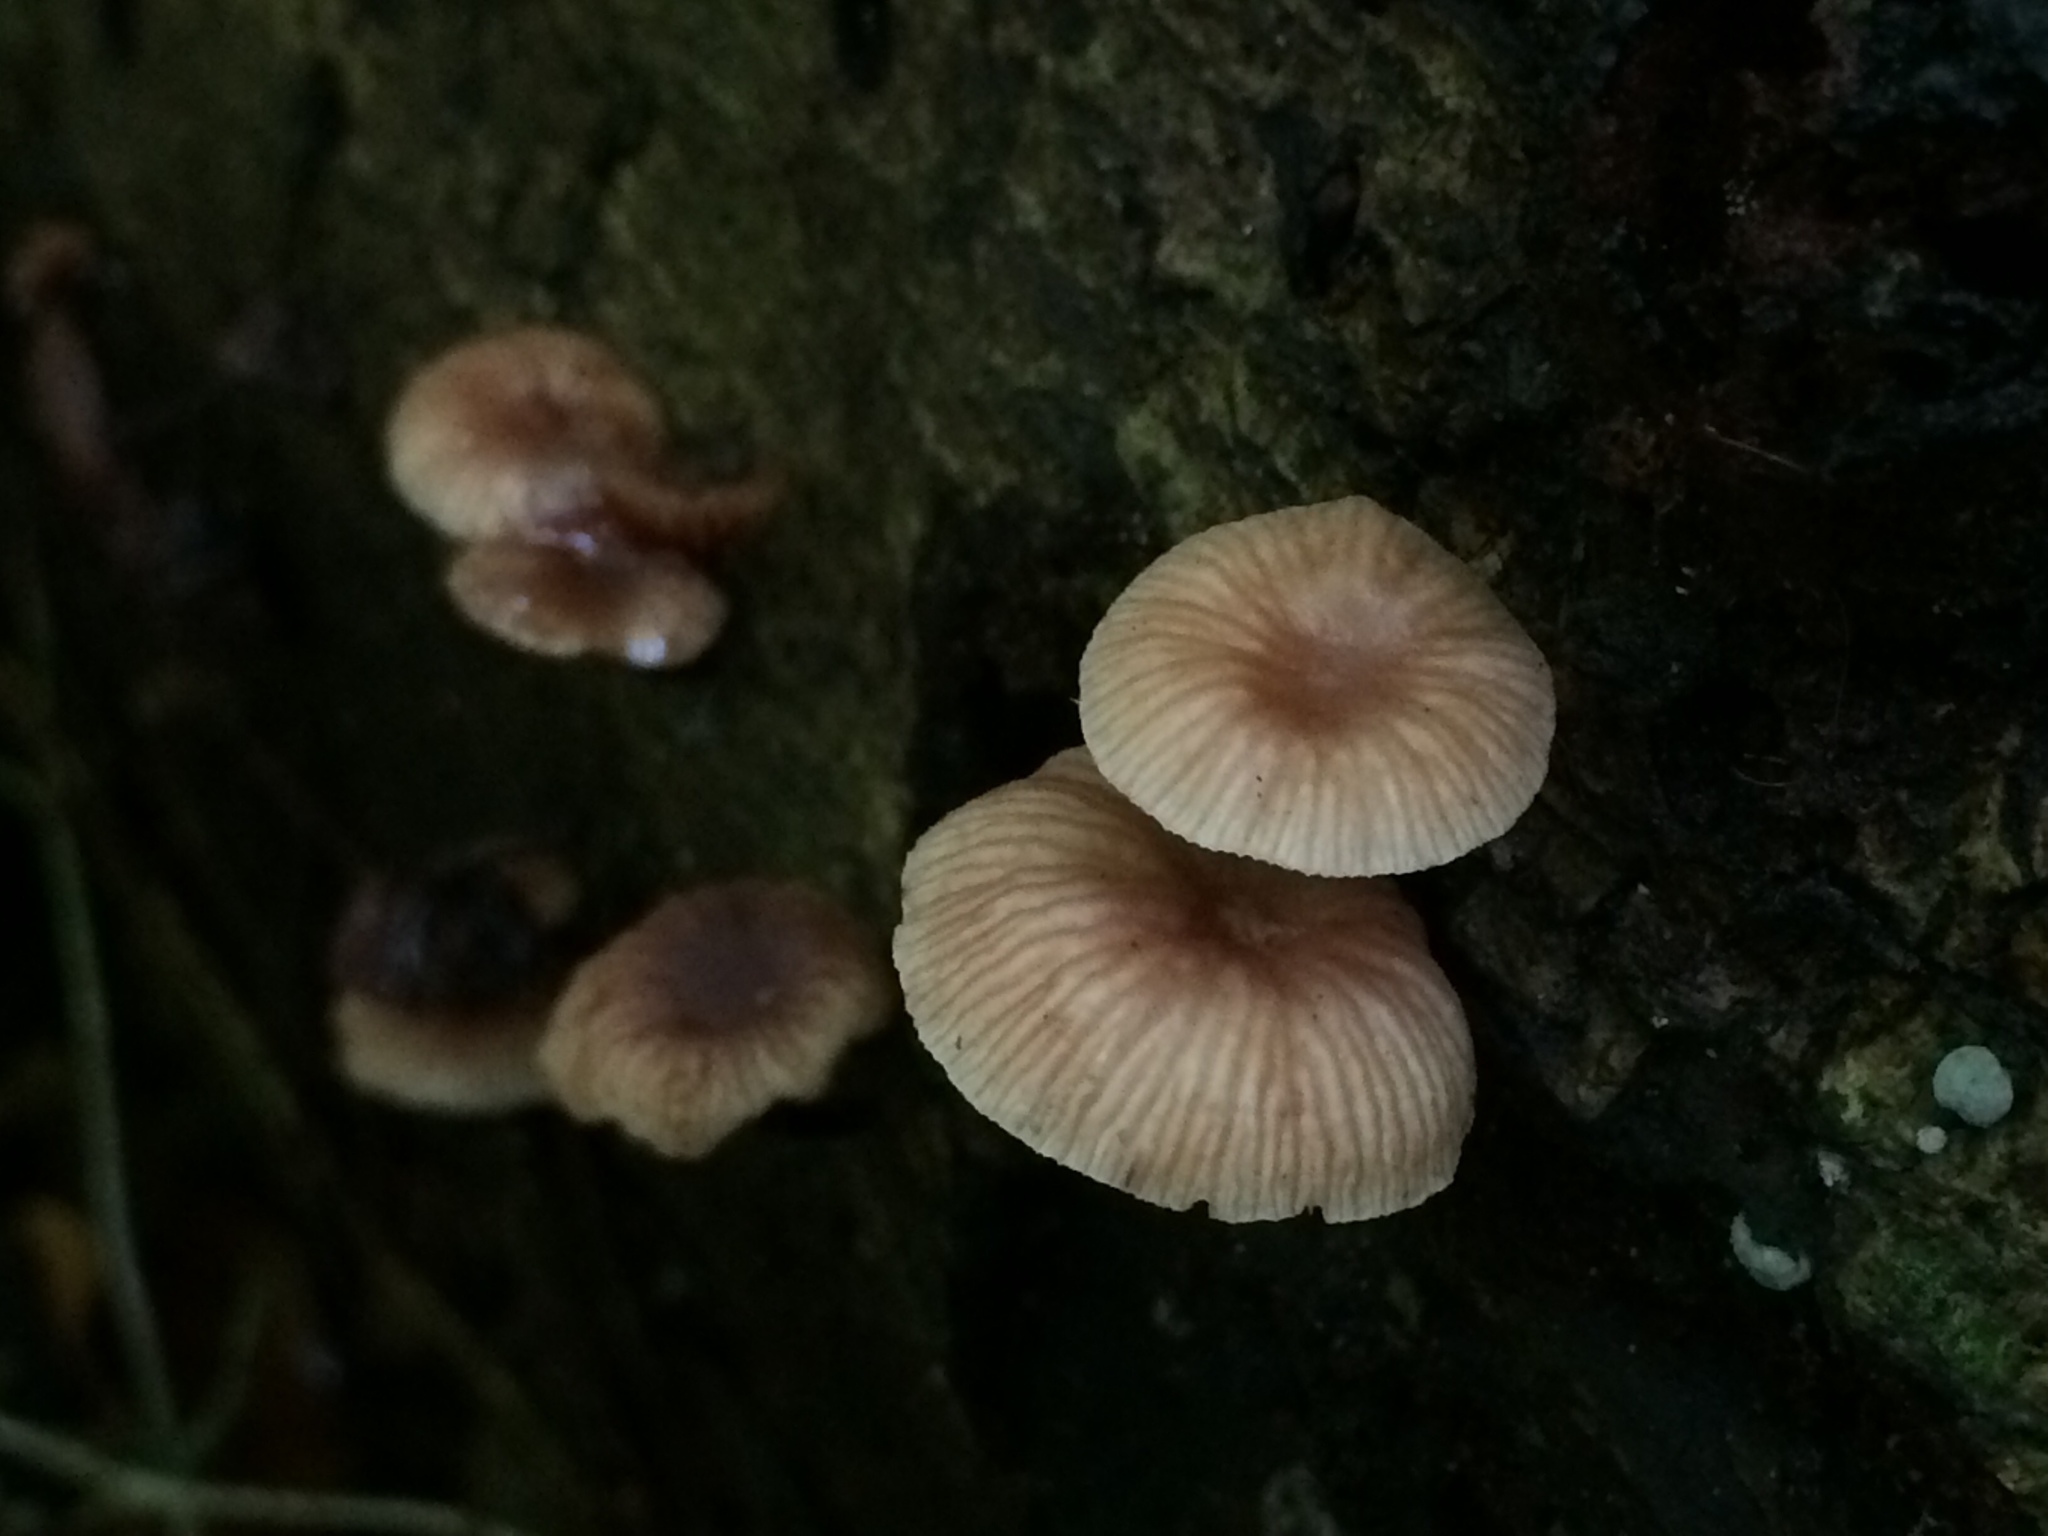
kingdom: Fungi
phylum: Basidiomycota
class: Agaricomycetes
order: Agaricales
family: Omphalotaceae
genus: Mycetinis
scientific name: Mycetinis curraniae
